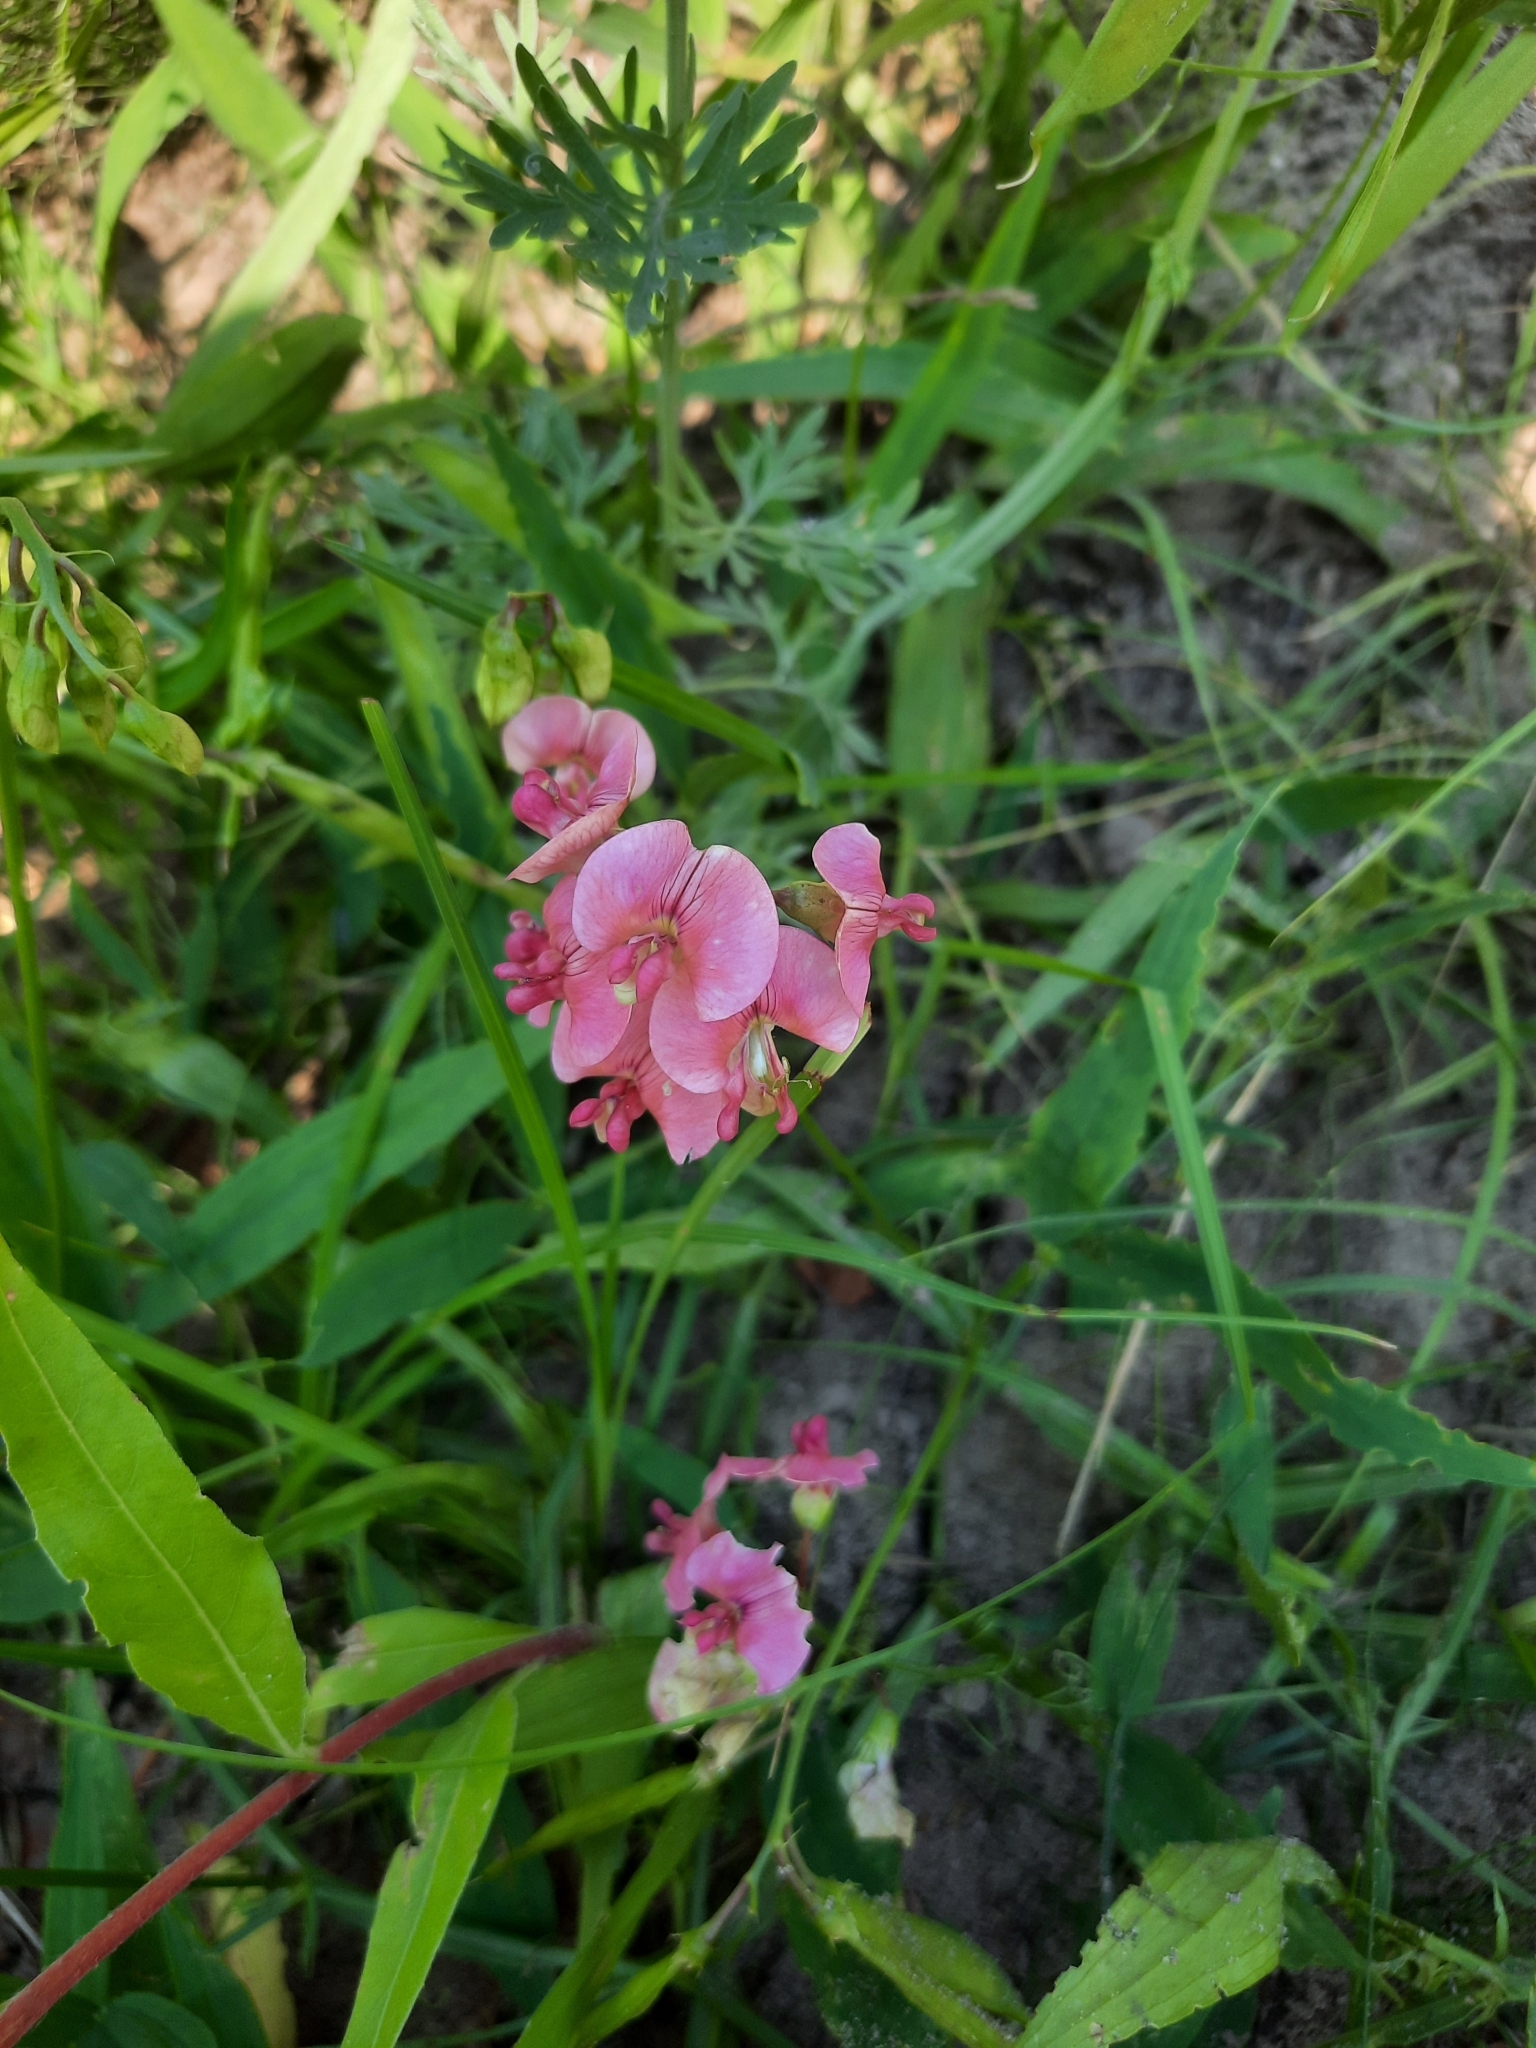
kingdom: Plantae
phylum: Tracheophyta
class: Magnoliopsida
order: Fabales
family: Fabaceae
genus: Lathyrus
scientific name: Lathyrus sylvestris
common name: Flat pea
